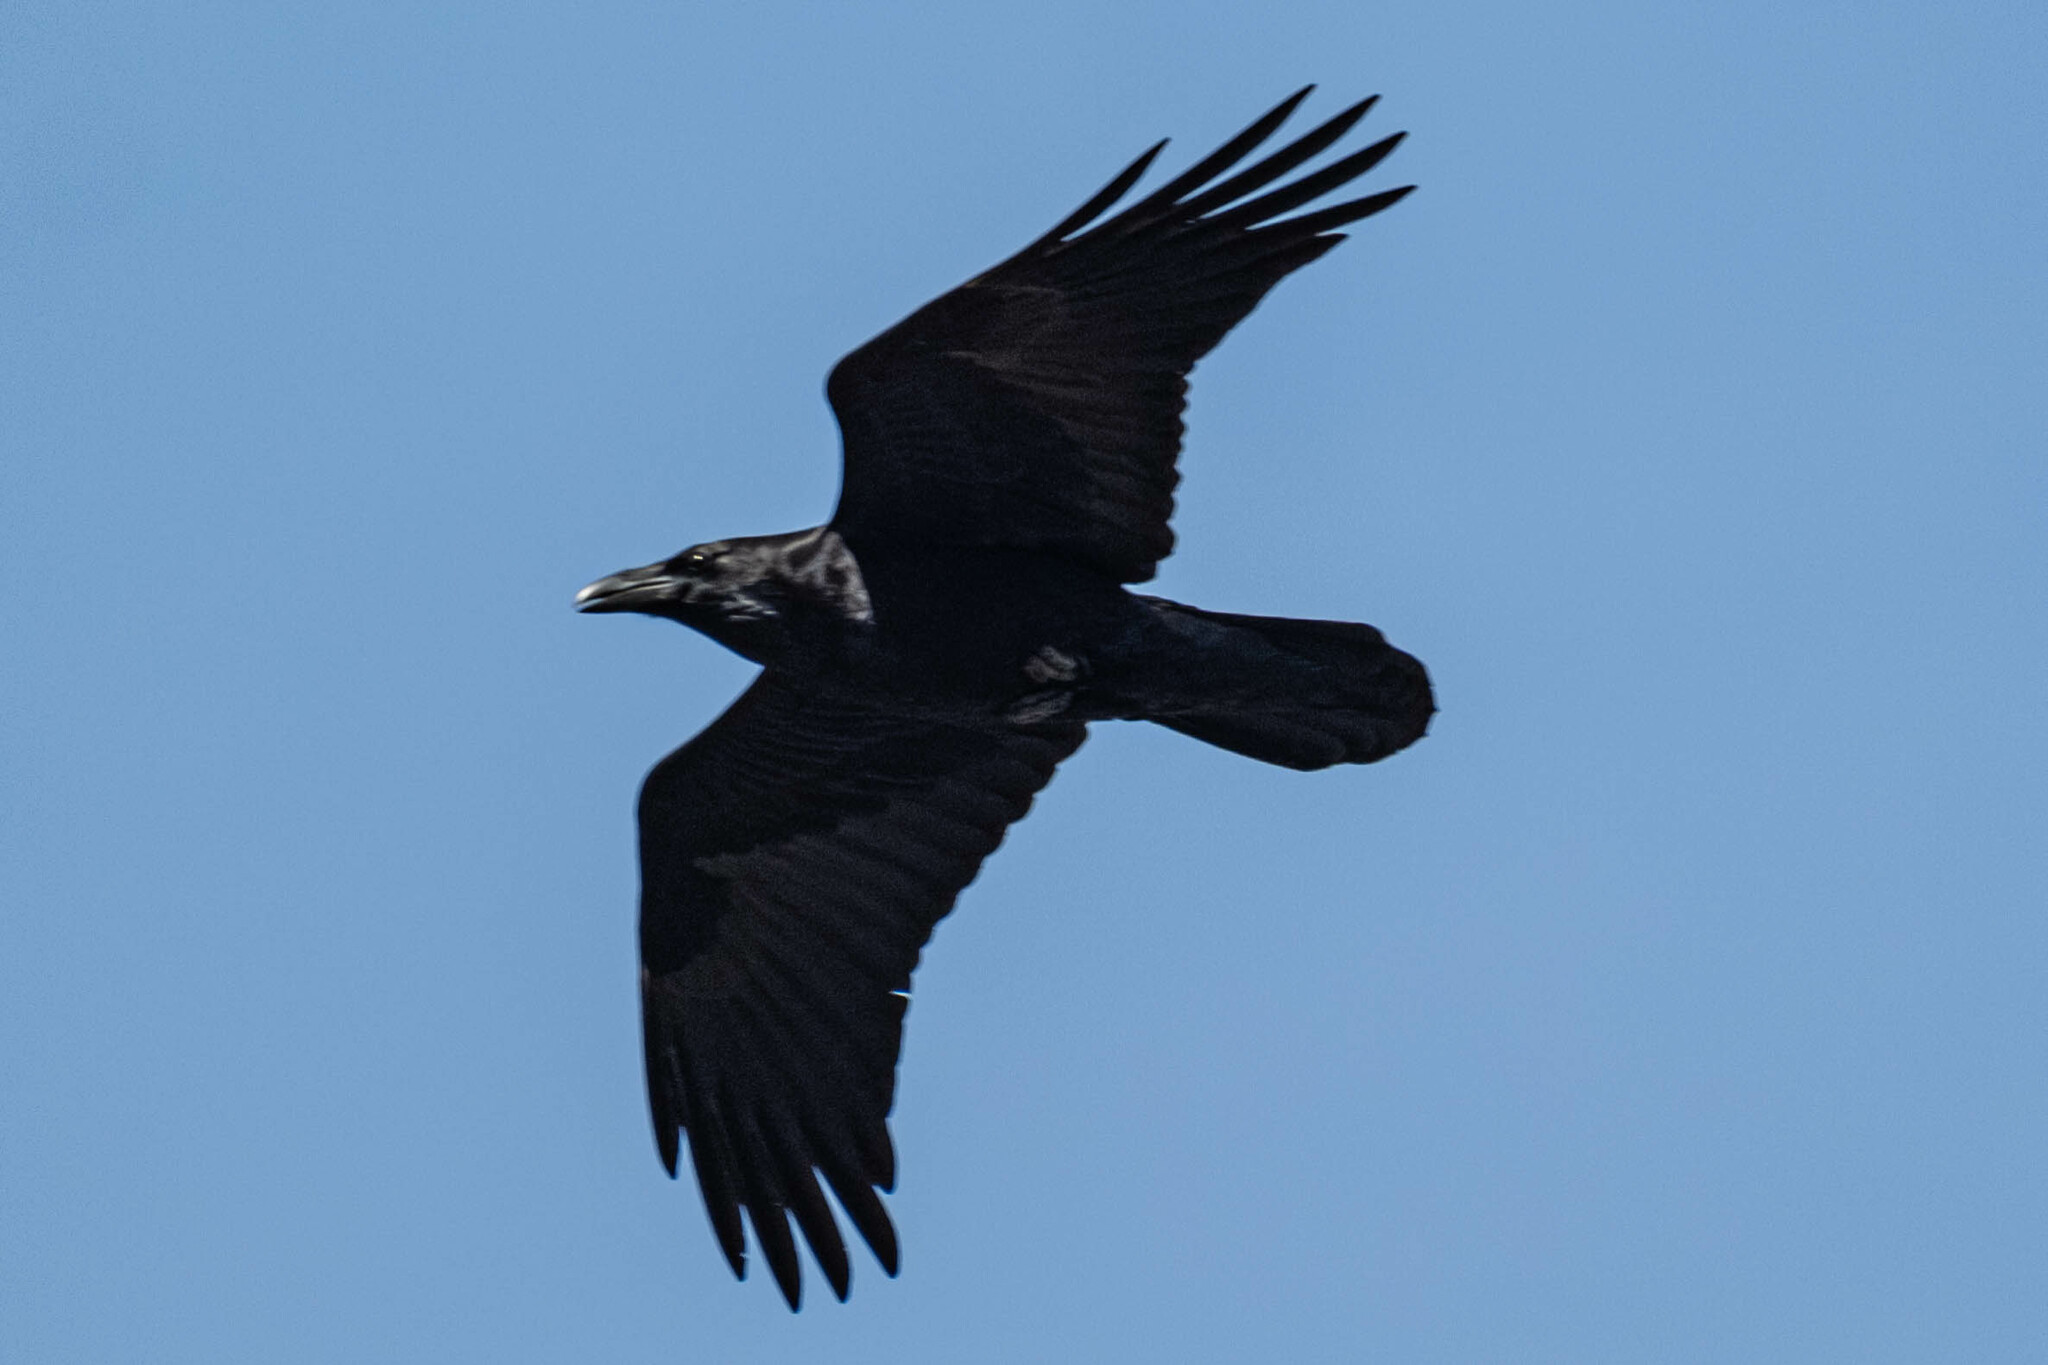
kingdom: Animalia
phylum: Chordata
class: Aves
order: Passeriformes
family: Corvidae
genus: Corvus
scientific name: Corvus corax
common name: Common raven
